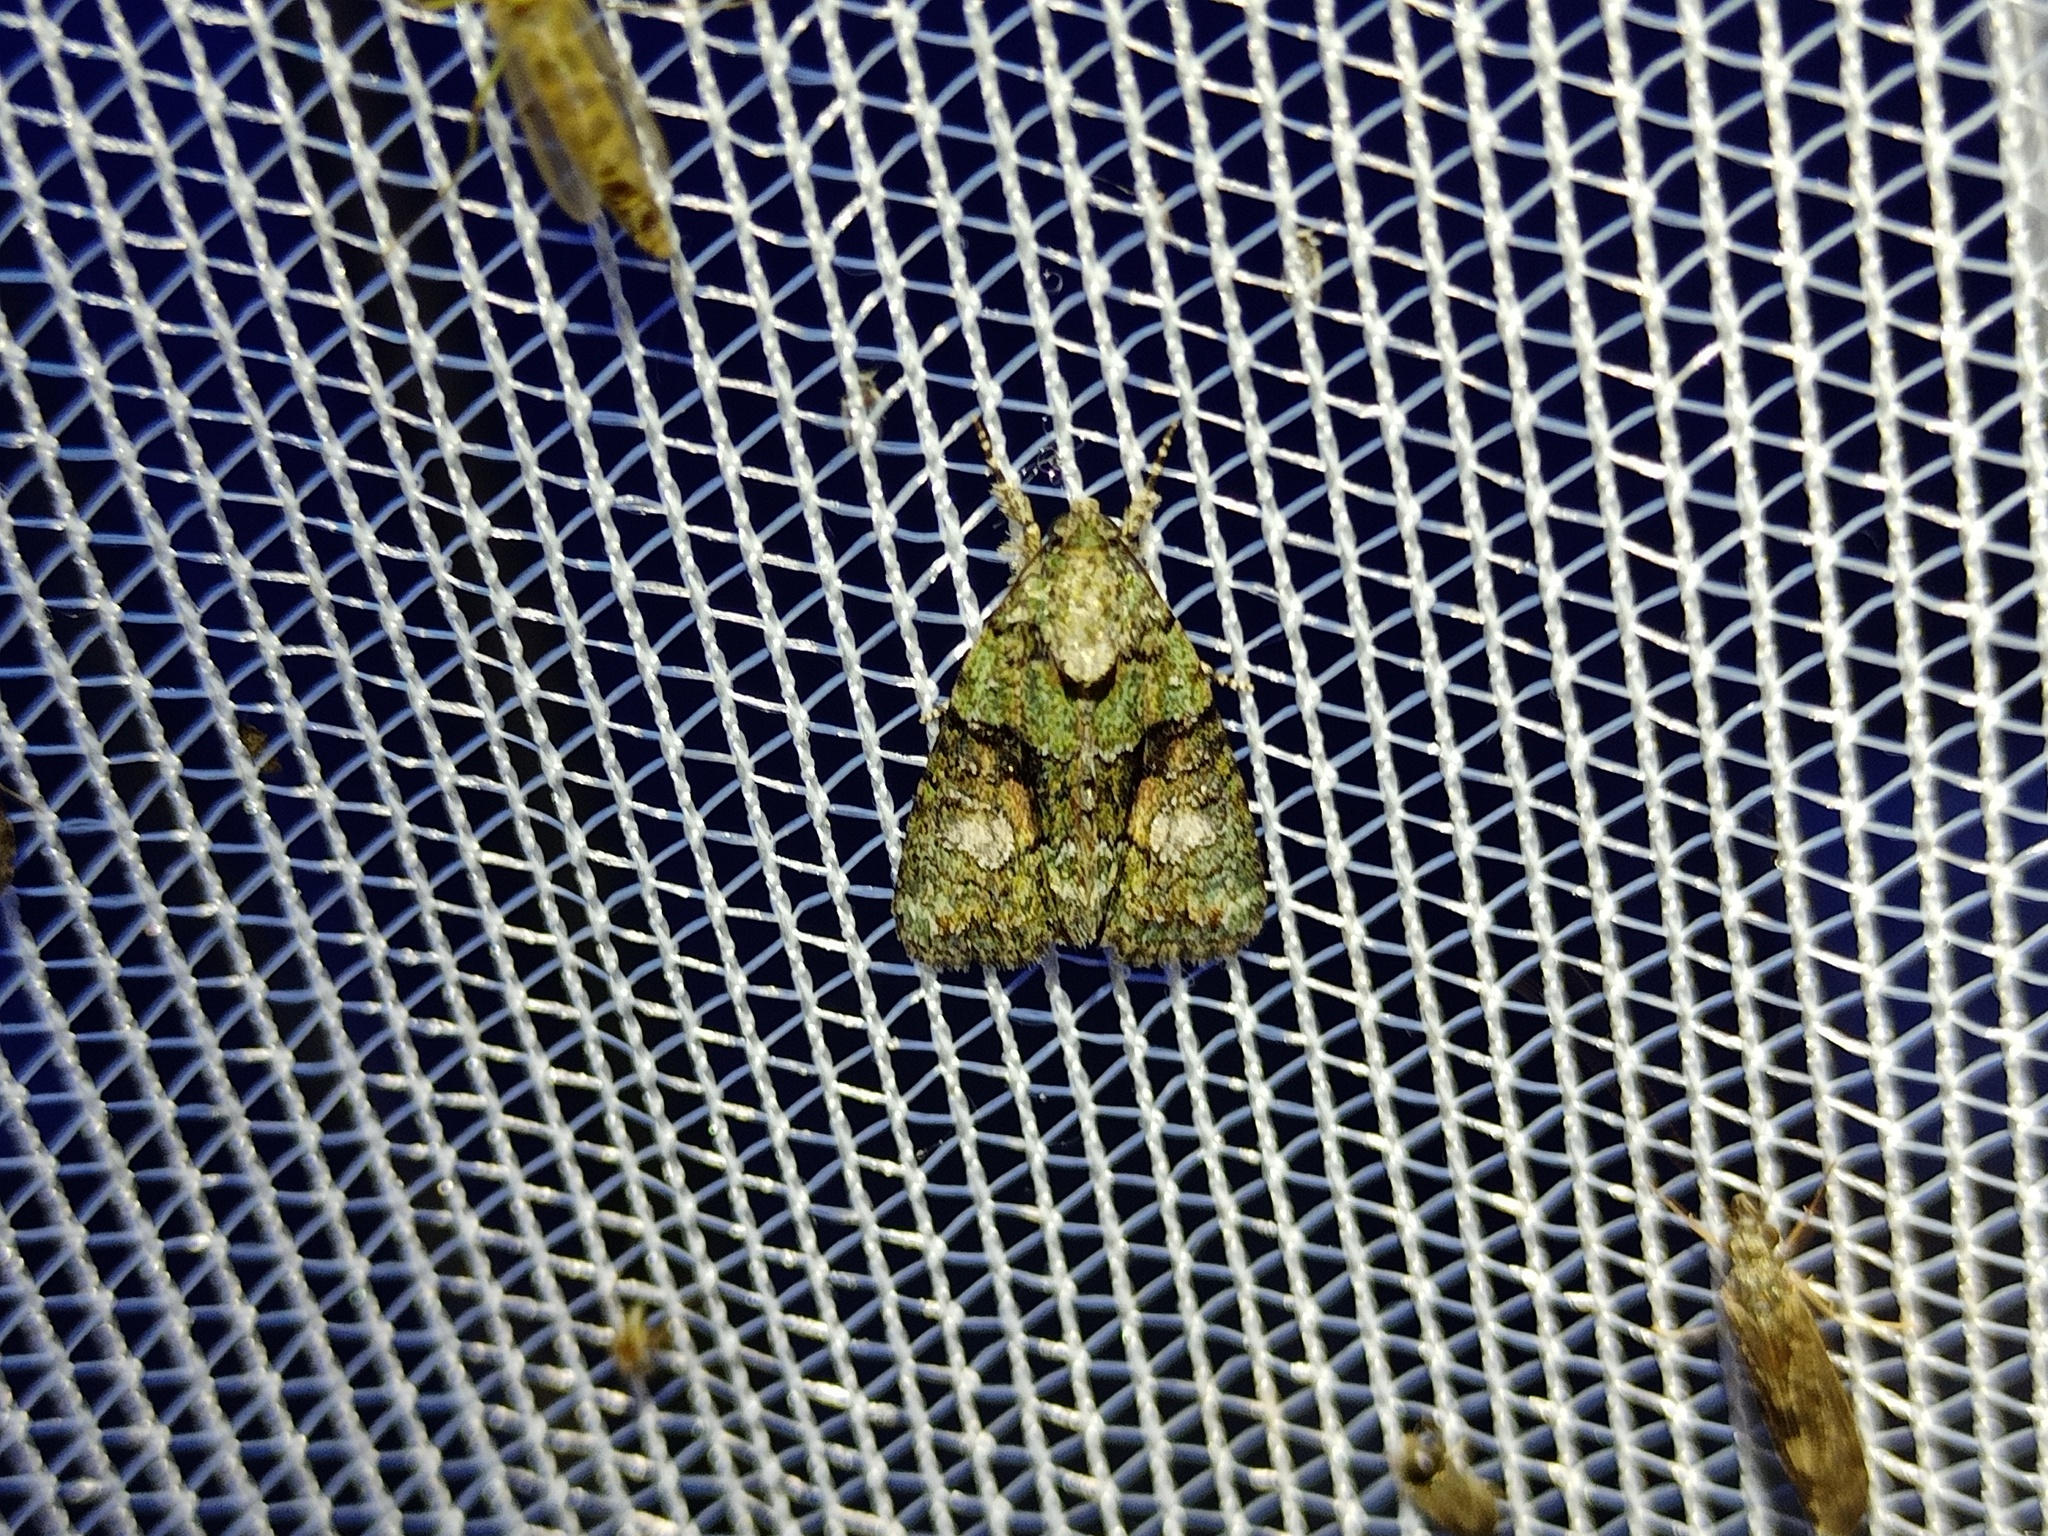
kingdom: Animalia
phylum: Arthropoda
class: Insecta
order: Lepidoptera
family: Noctuidae
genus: Cryphia
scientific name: Cryphia algae
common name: Tree-lichen beauty
